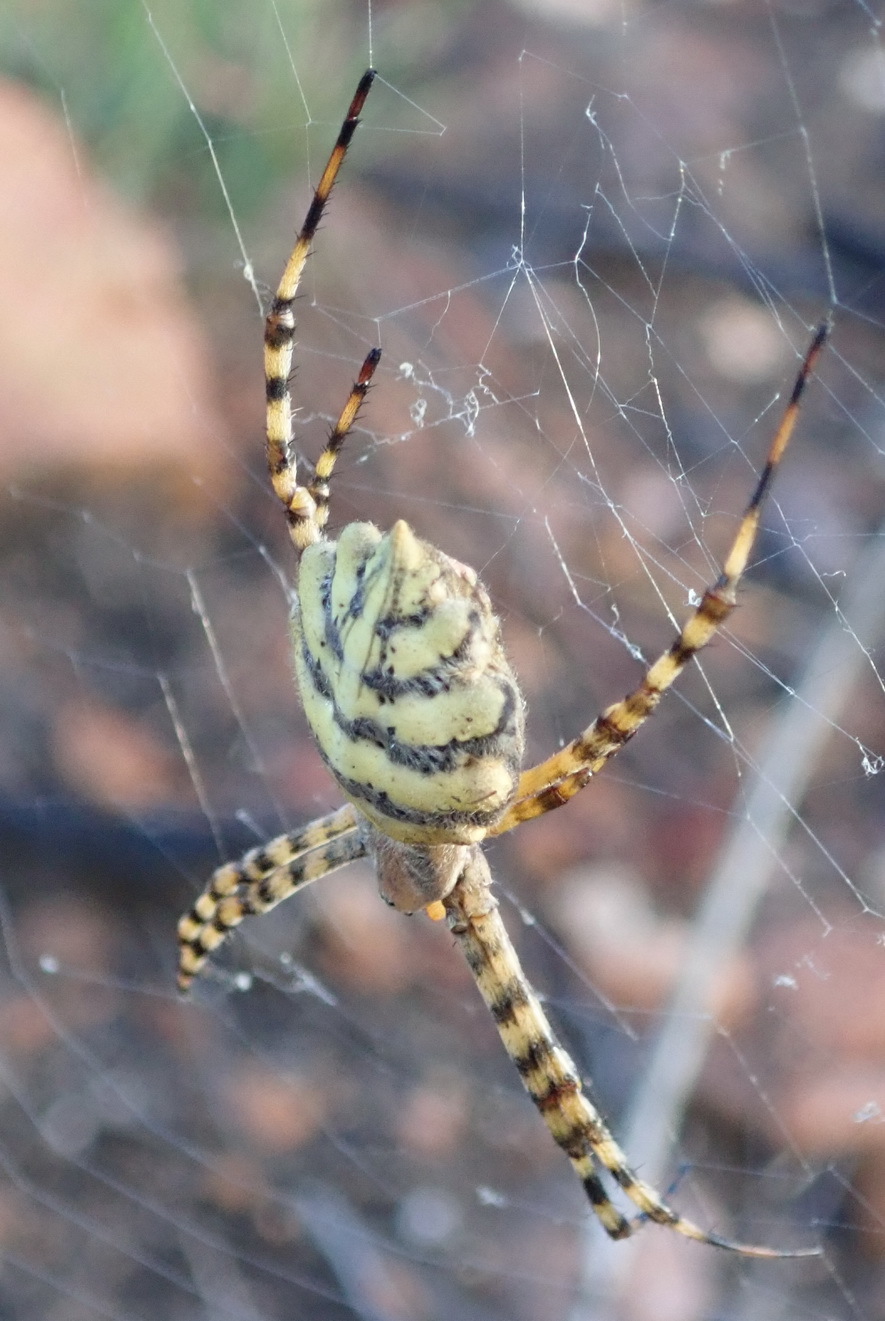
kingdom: Animalia
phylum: Arthropoda
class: Arachnida
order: Araneae
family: Araneidae
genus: Argiope
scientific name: Argiope australis
